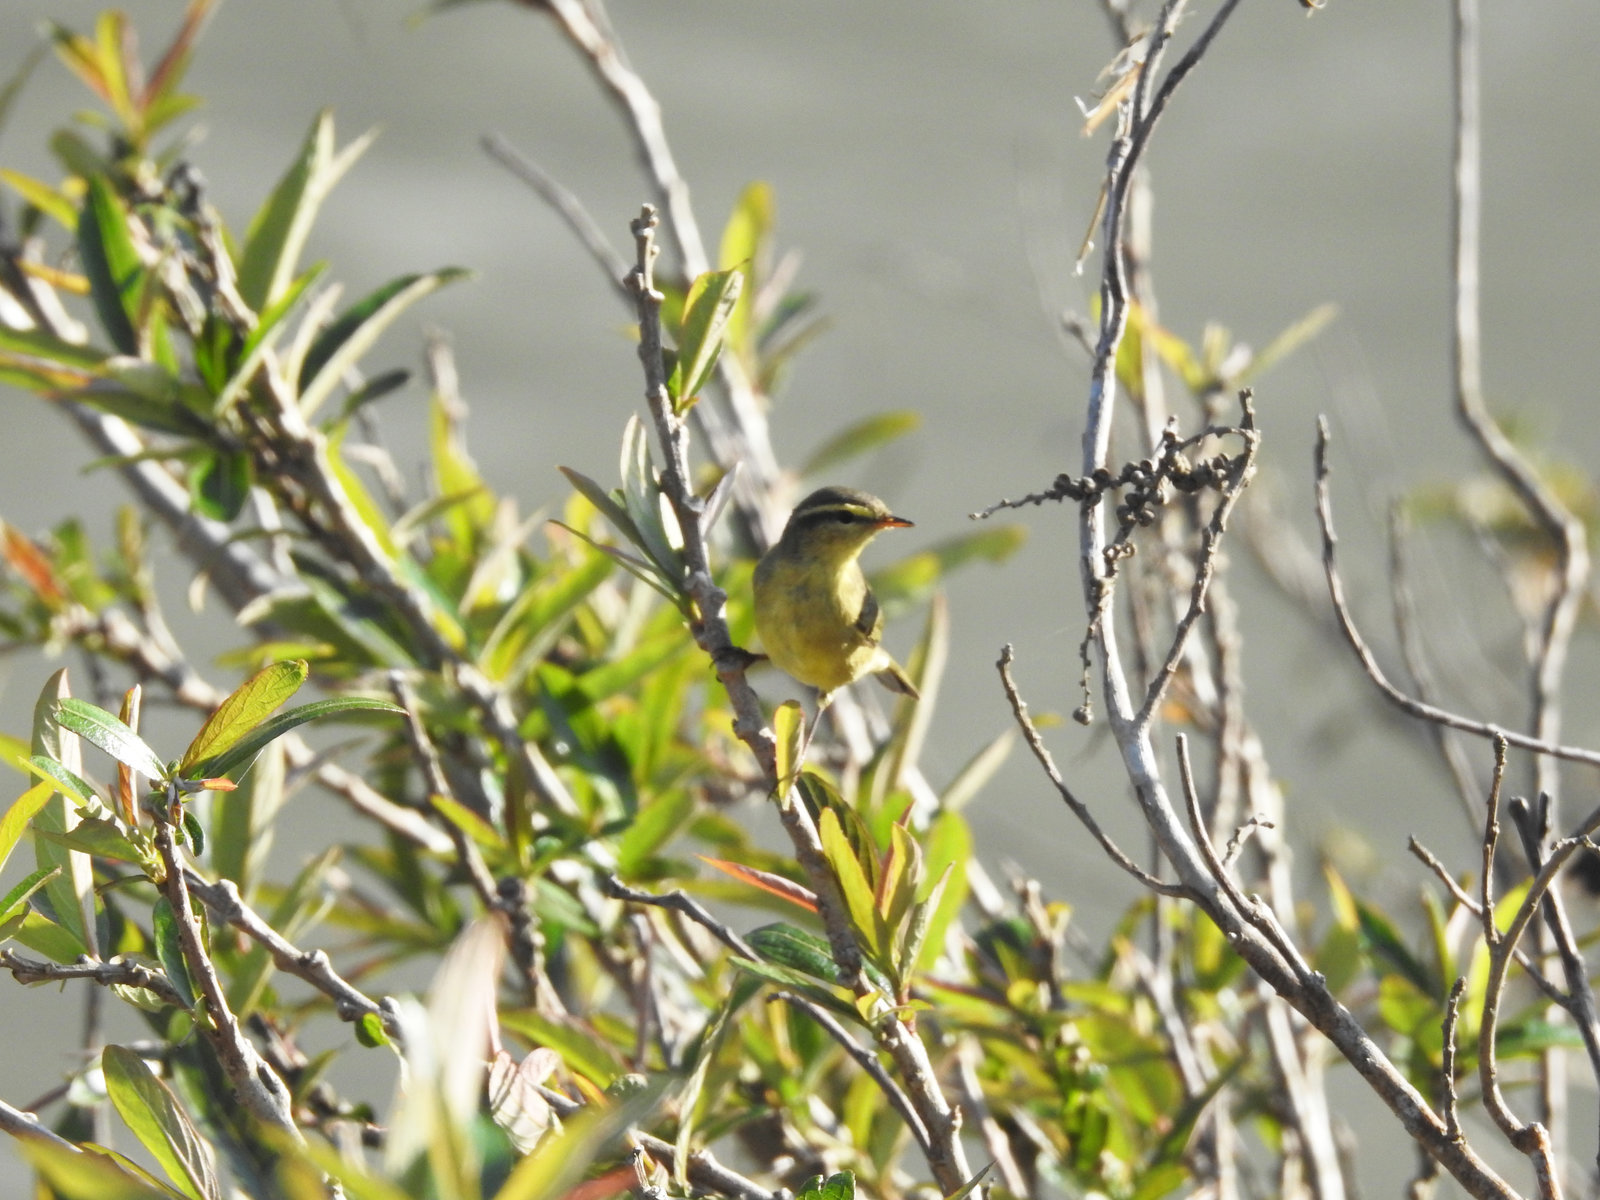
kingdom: Animalia
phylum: Chordata
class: Aves
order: Passeriformes
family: Phylloscopidae
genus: Phylloscopus
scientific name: Phylloscopus affinis
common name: Tickell's leaf warbler
